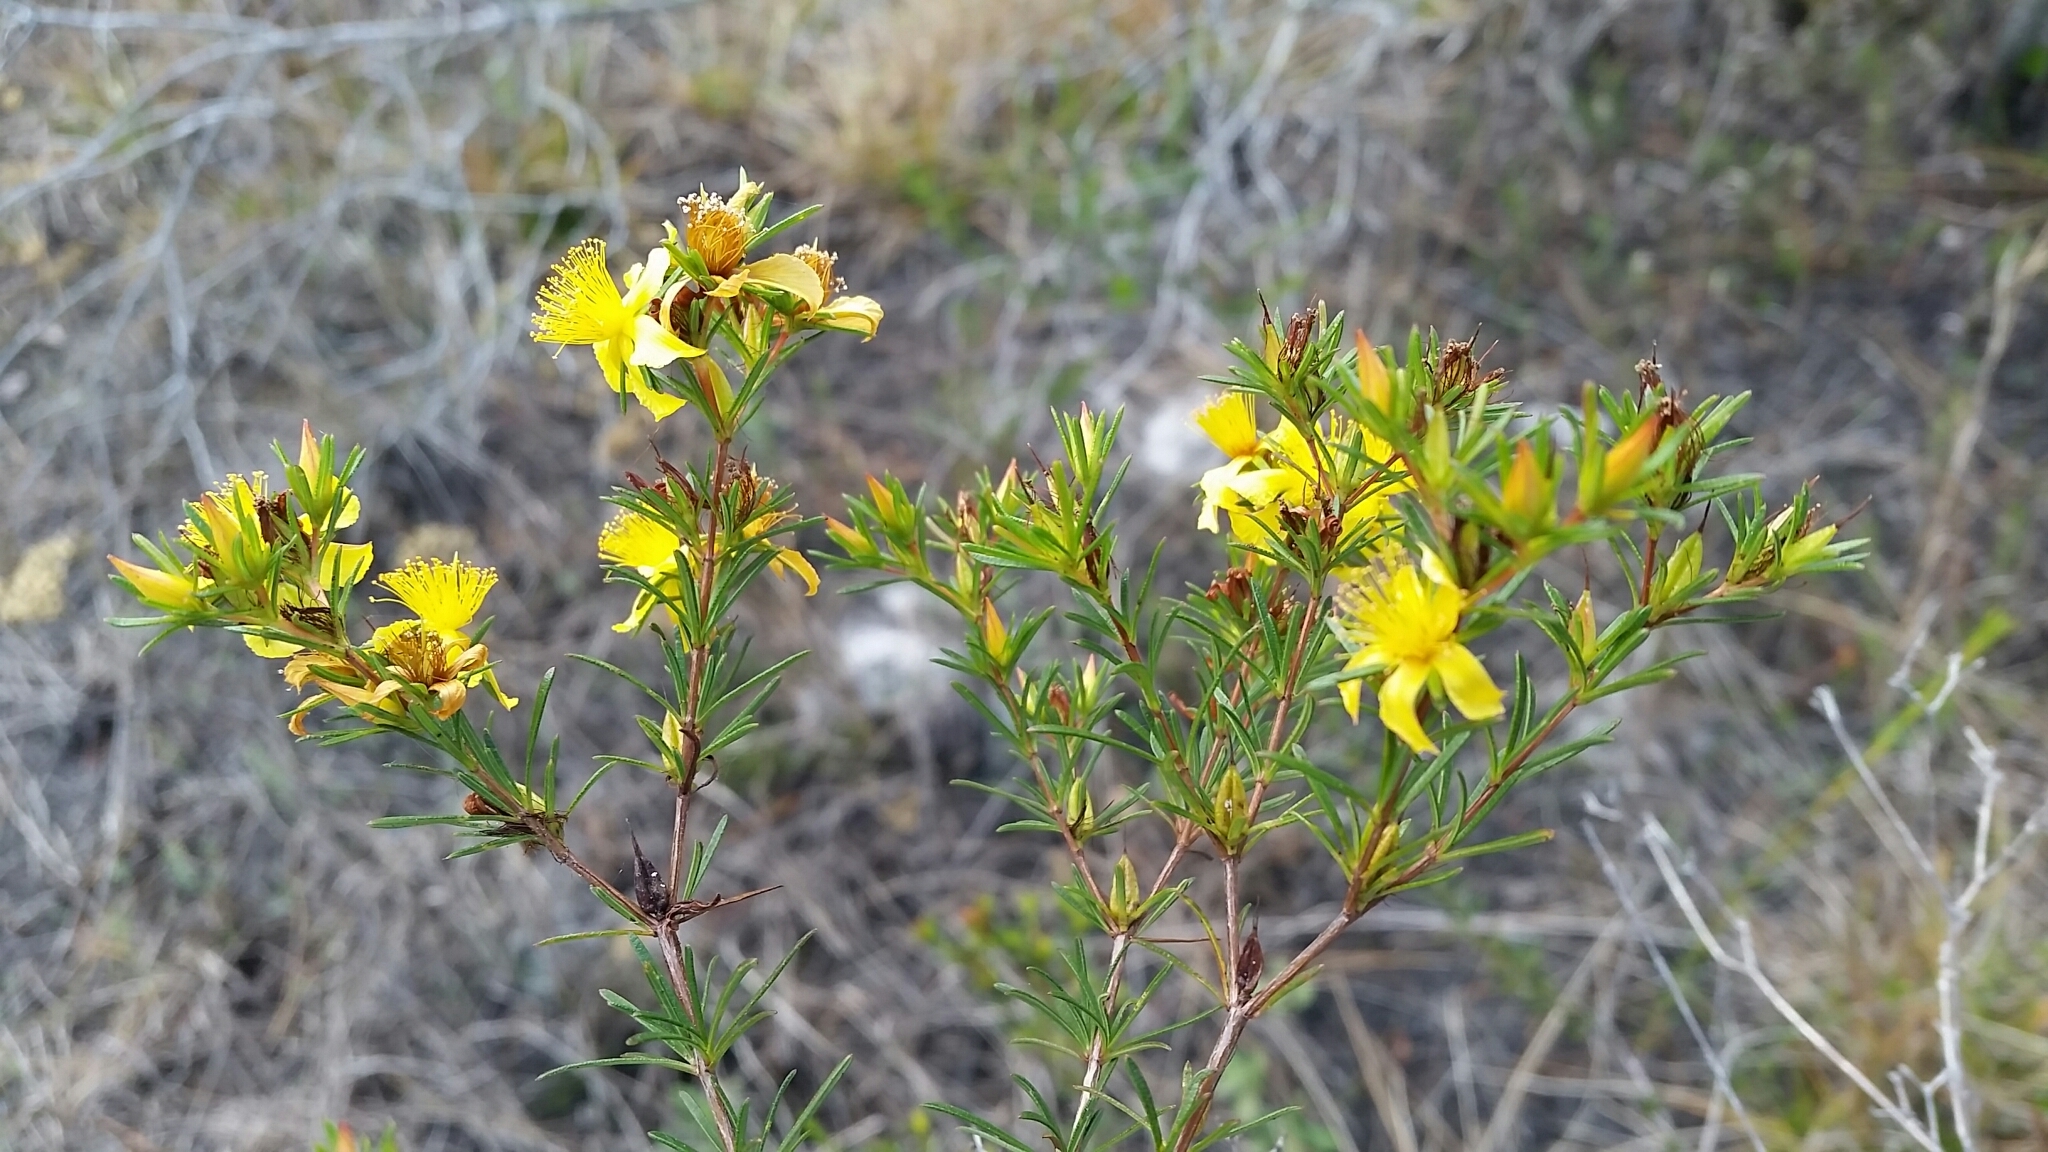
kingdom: Plantae
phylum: Tracheophyta
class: Magnoliopsida
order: Malpighiales
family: Hypericaceae
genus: Hypericum
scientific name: Hypericum fasciculatum
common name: Peelbark st. john's wort
